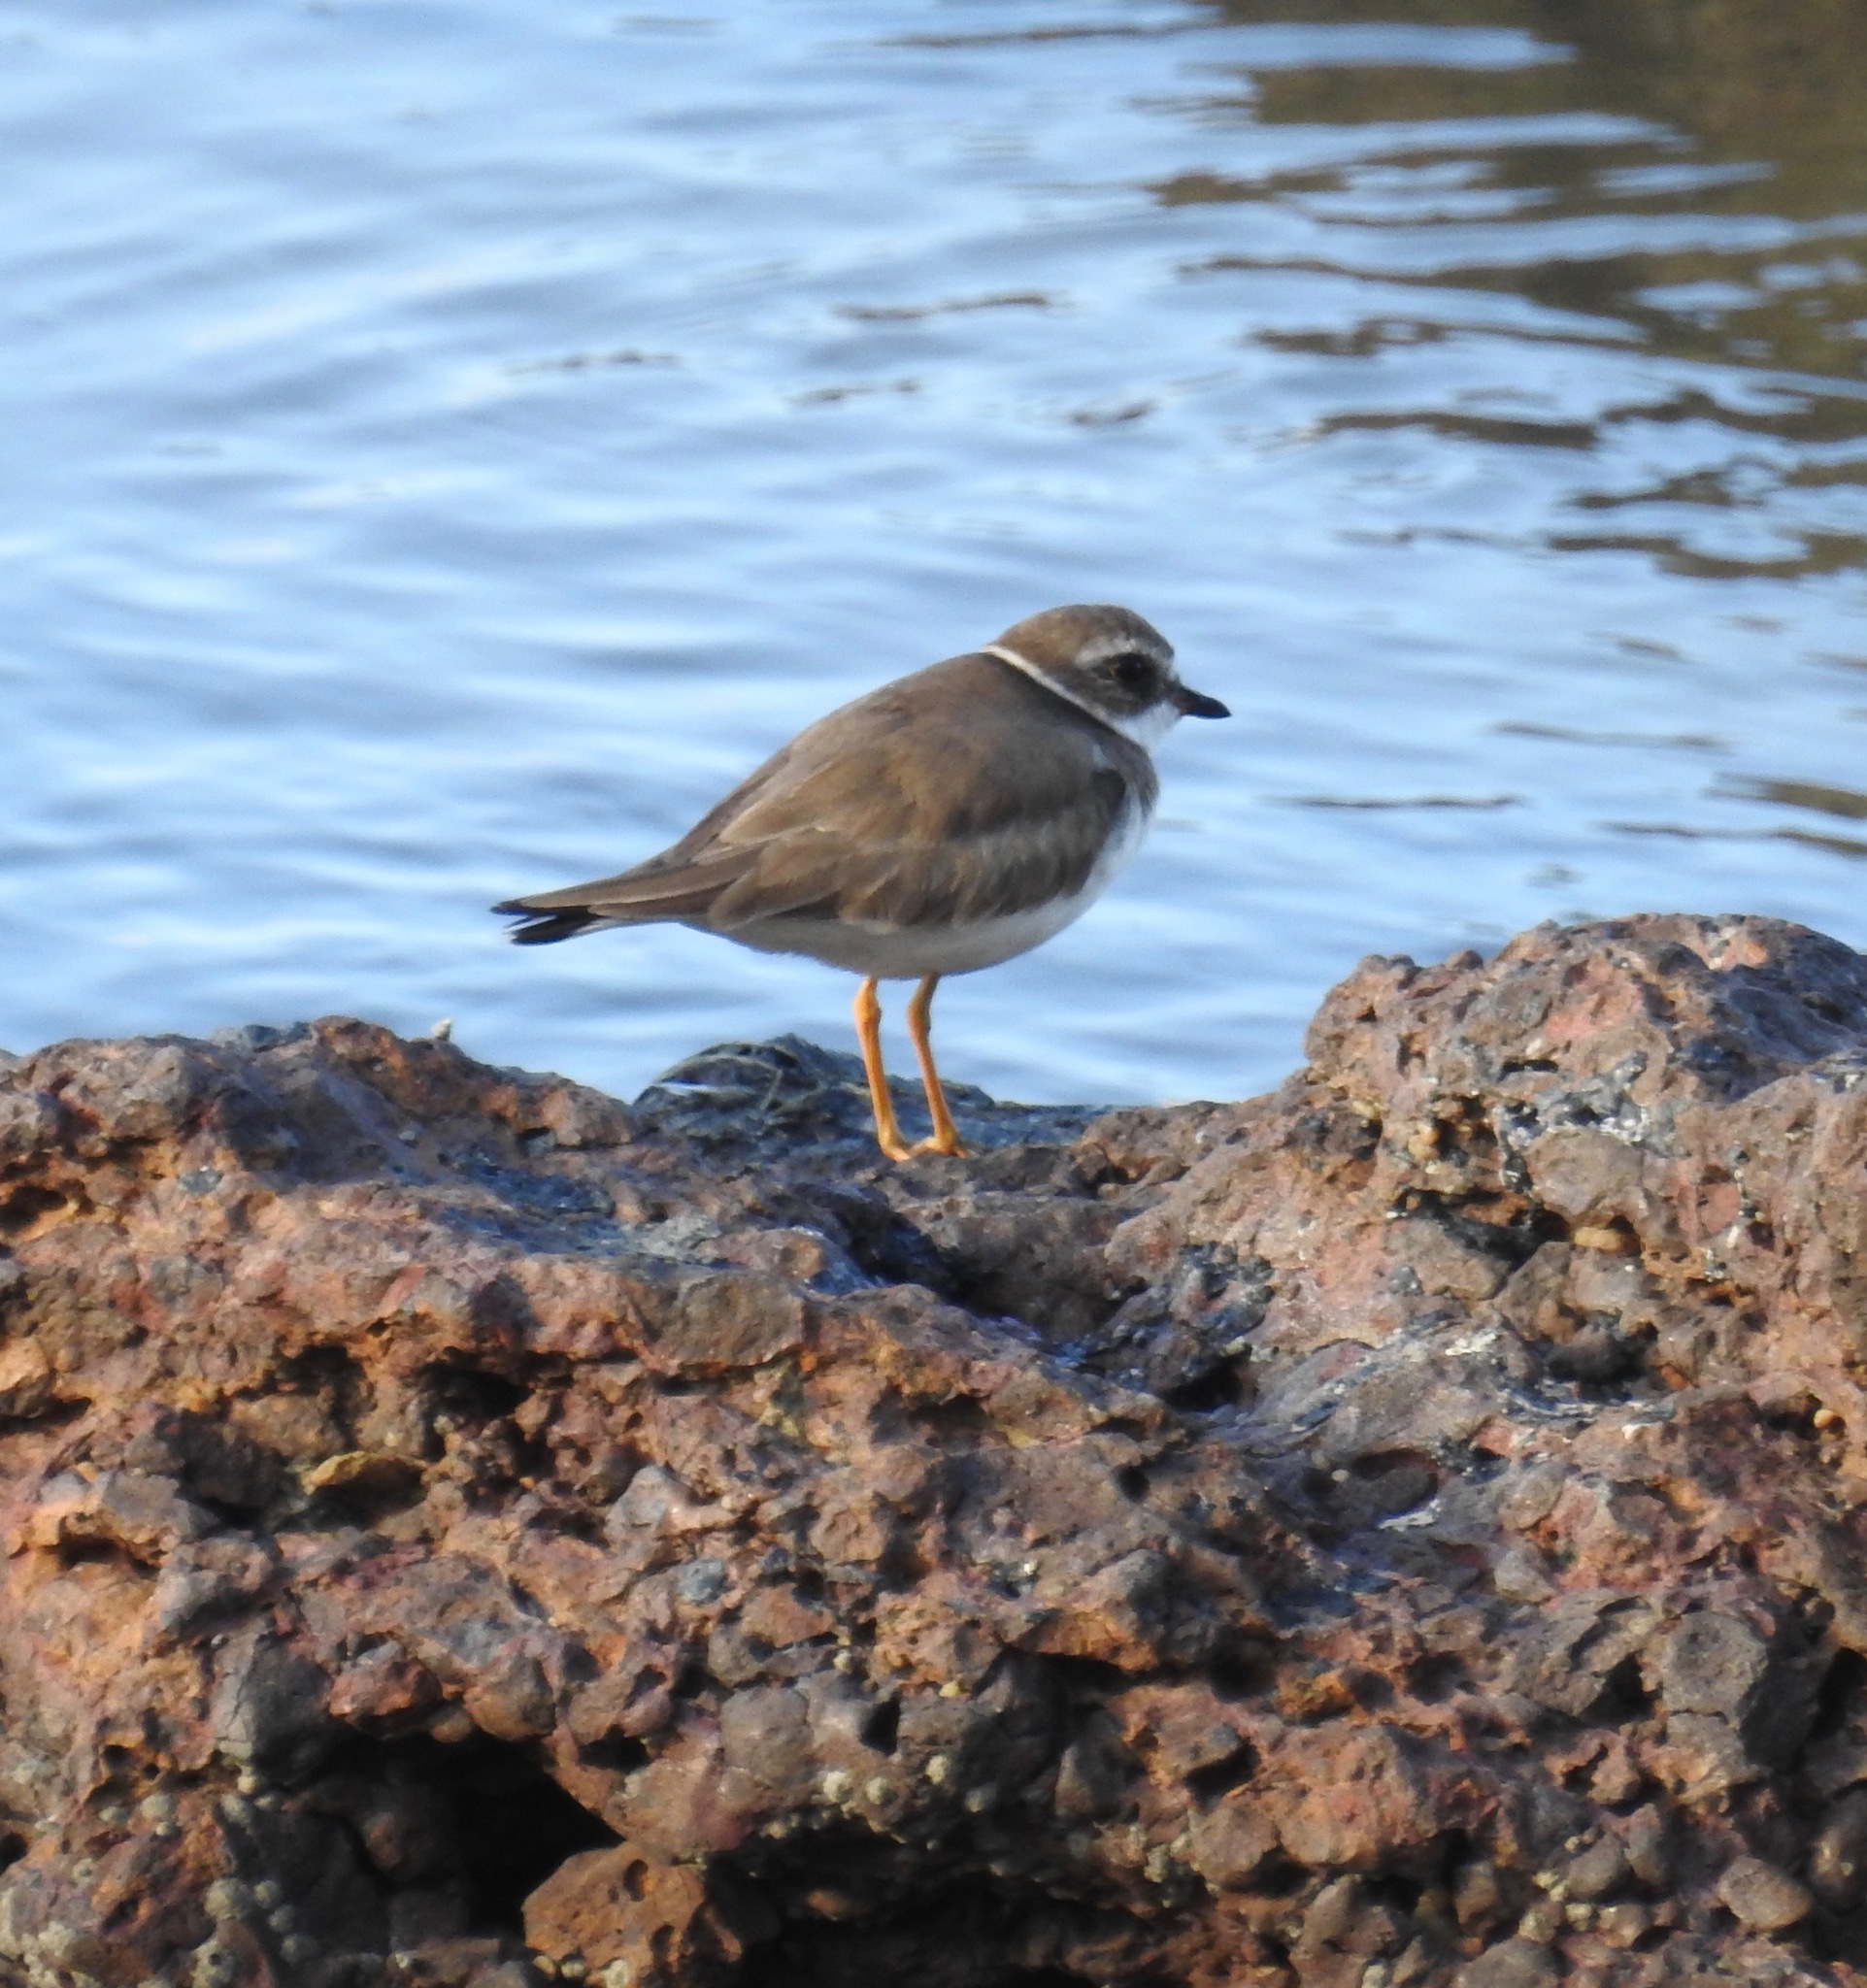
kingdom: Animalia
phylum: Chordata
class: Aves
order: Charadriiformes
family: Charadriidae
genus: Charadrius
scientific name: Charadrius semipalmatus
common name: Semipalmated plover
